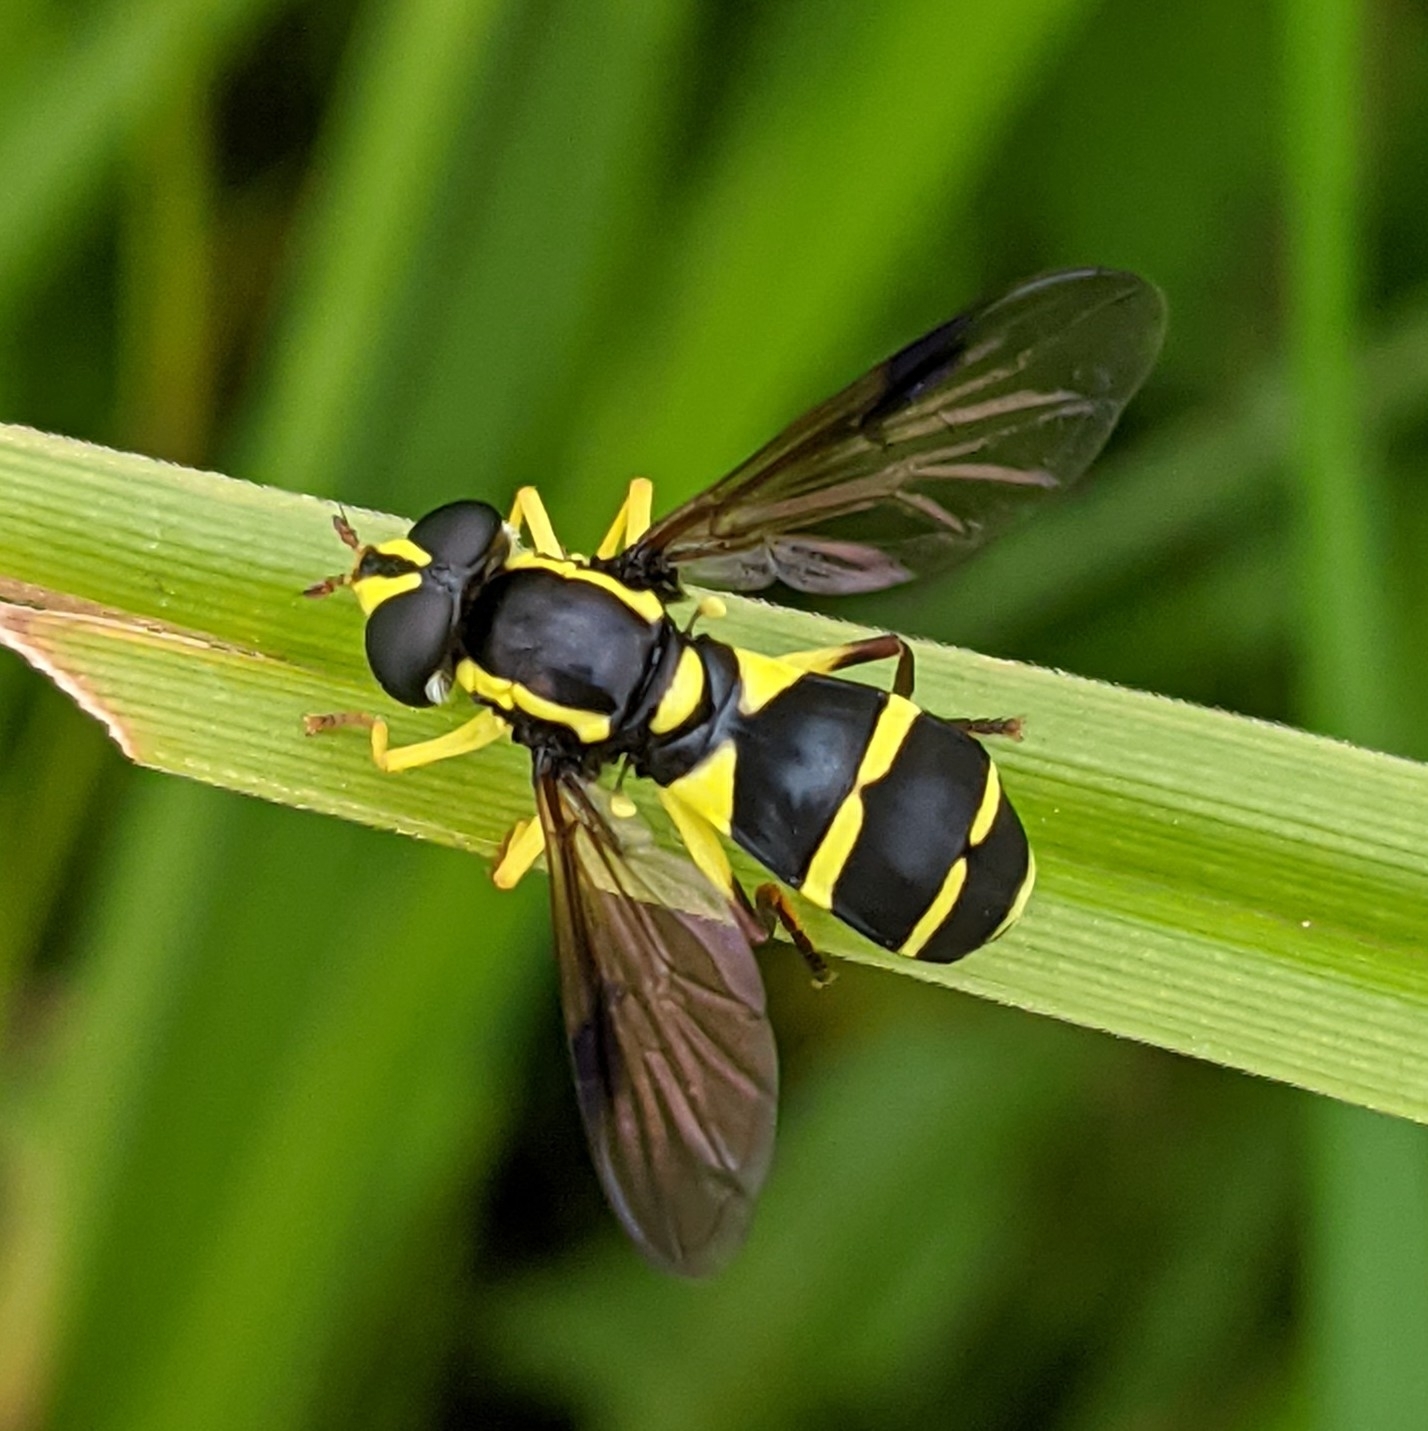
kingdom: Animalia
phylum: Arthropoda
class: Insecta
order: Diptera
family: Syrphidae
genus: Philhelius
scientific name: Philhelius pedissequum
